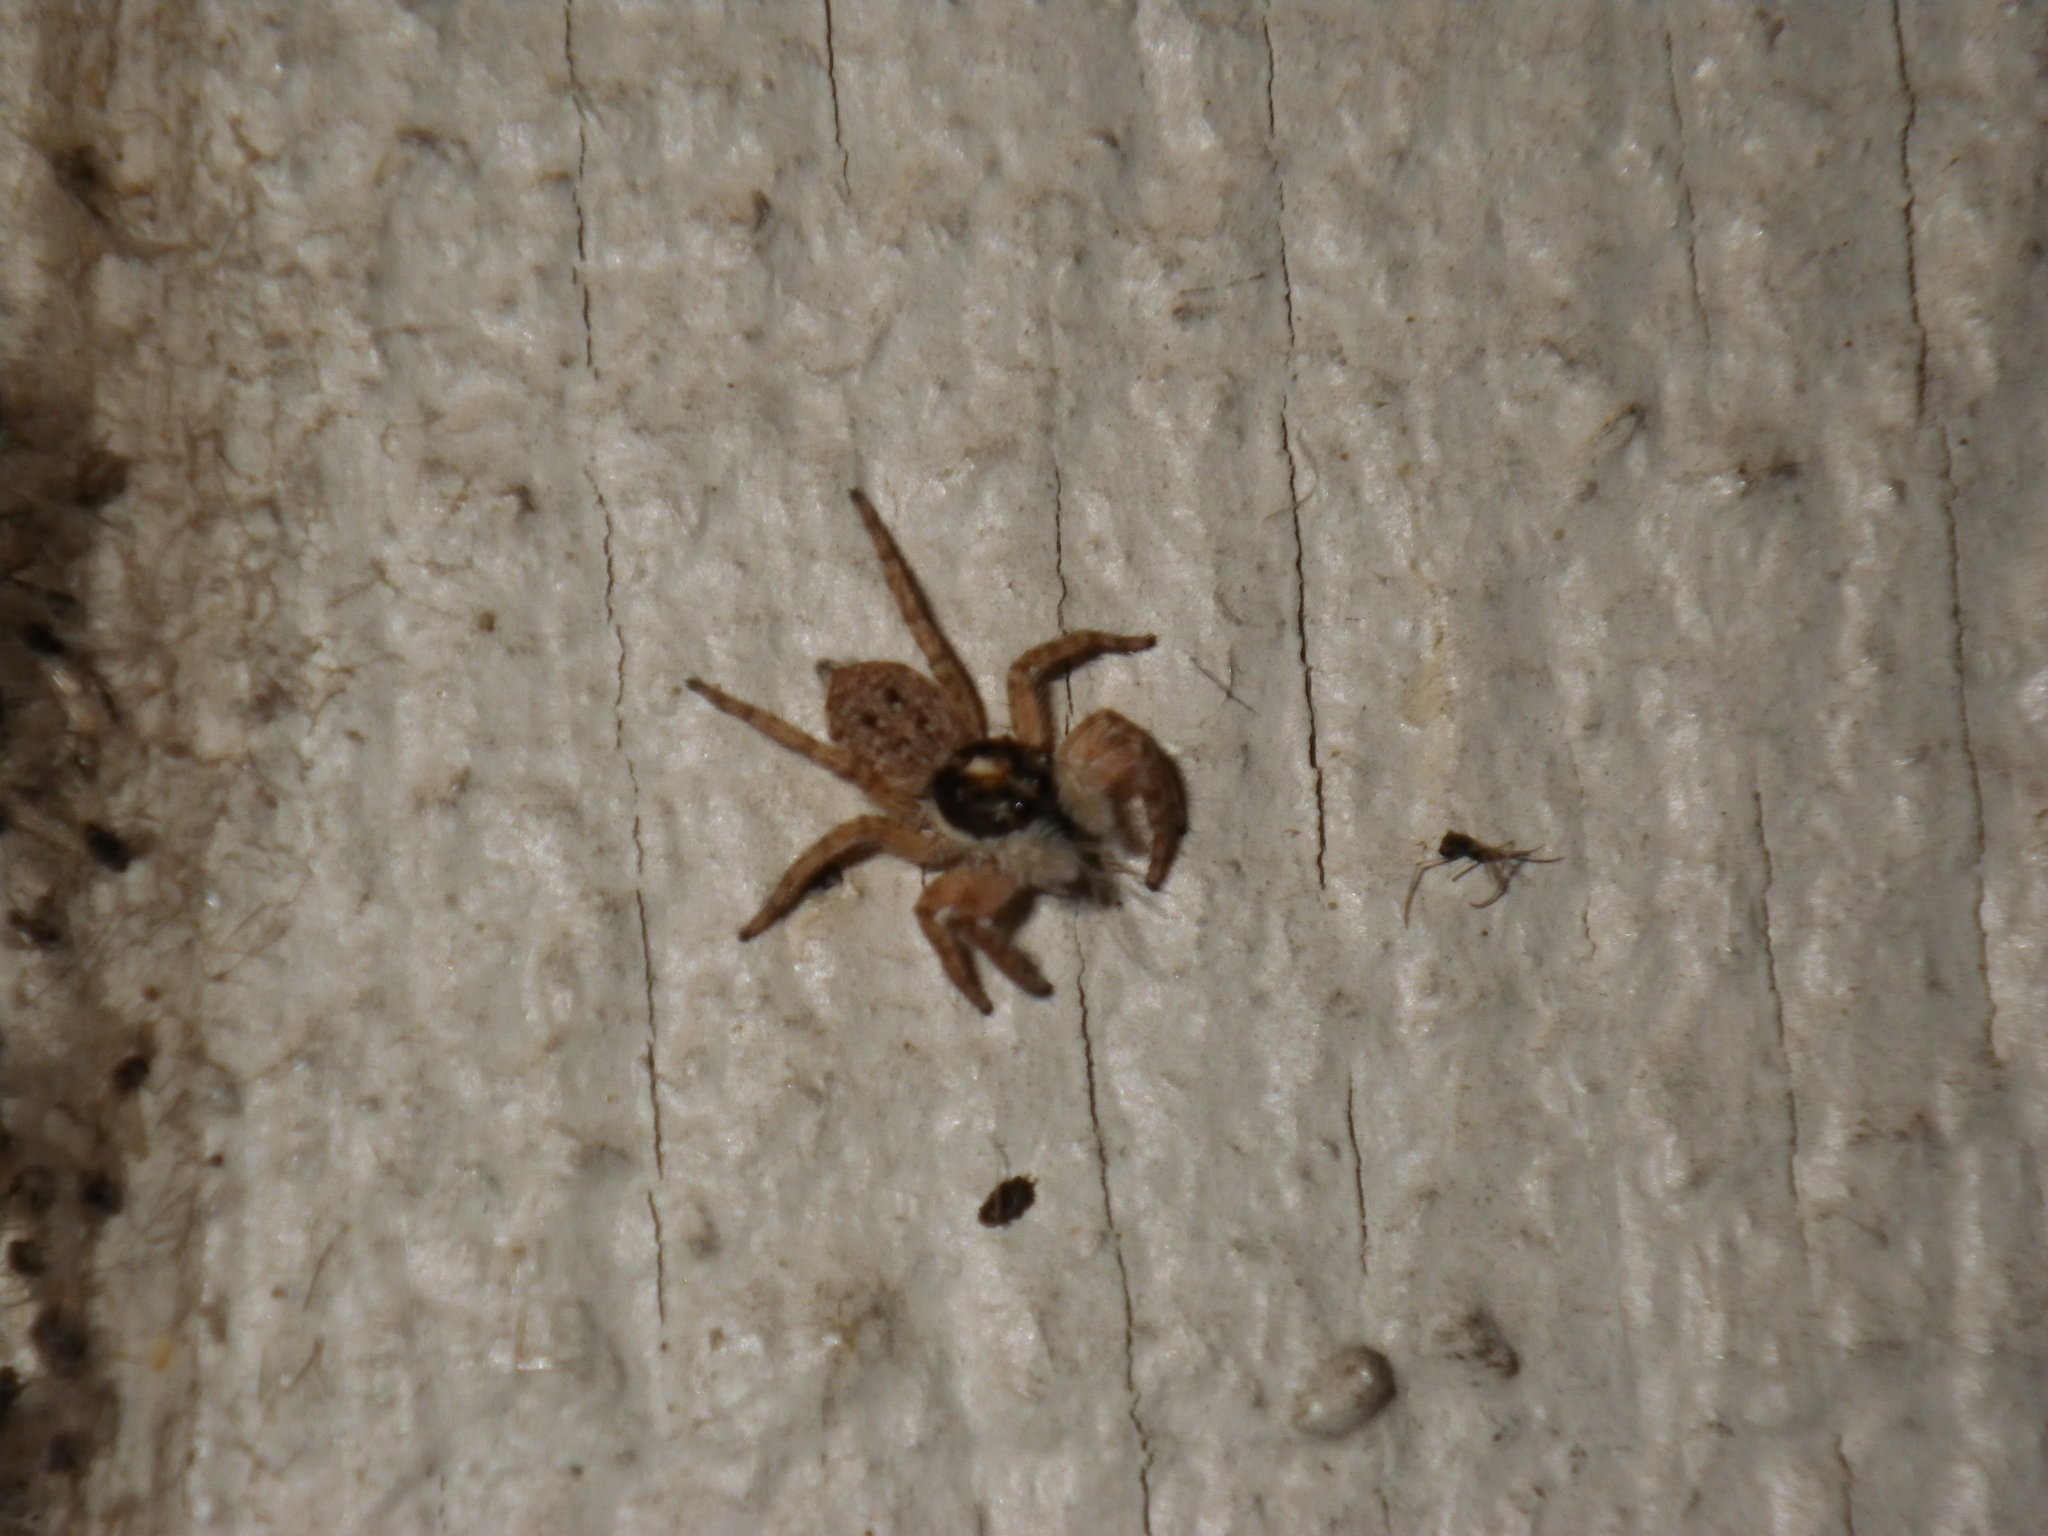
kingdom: Animalia
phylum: Arthropoda
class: Arachnida
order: Araneae
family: Salticidae
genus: Menemerus
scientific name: Menemerus semilimbatus
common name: Jumping spider
